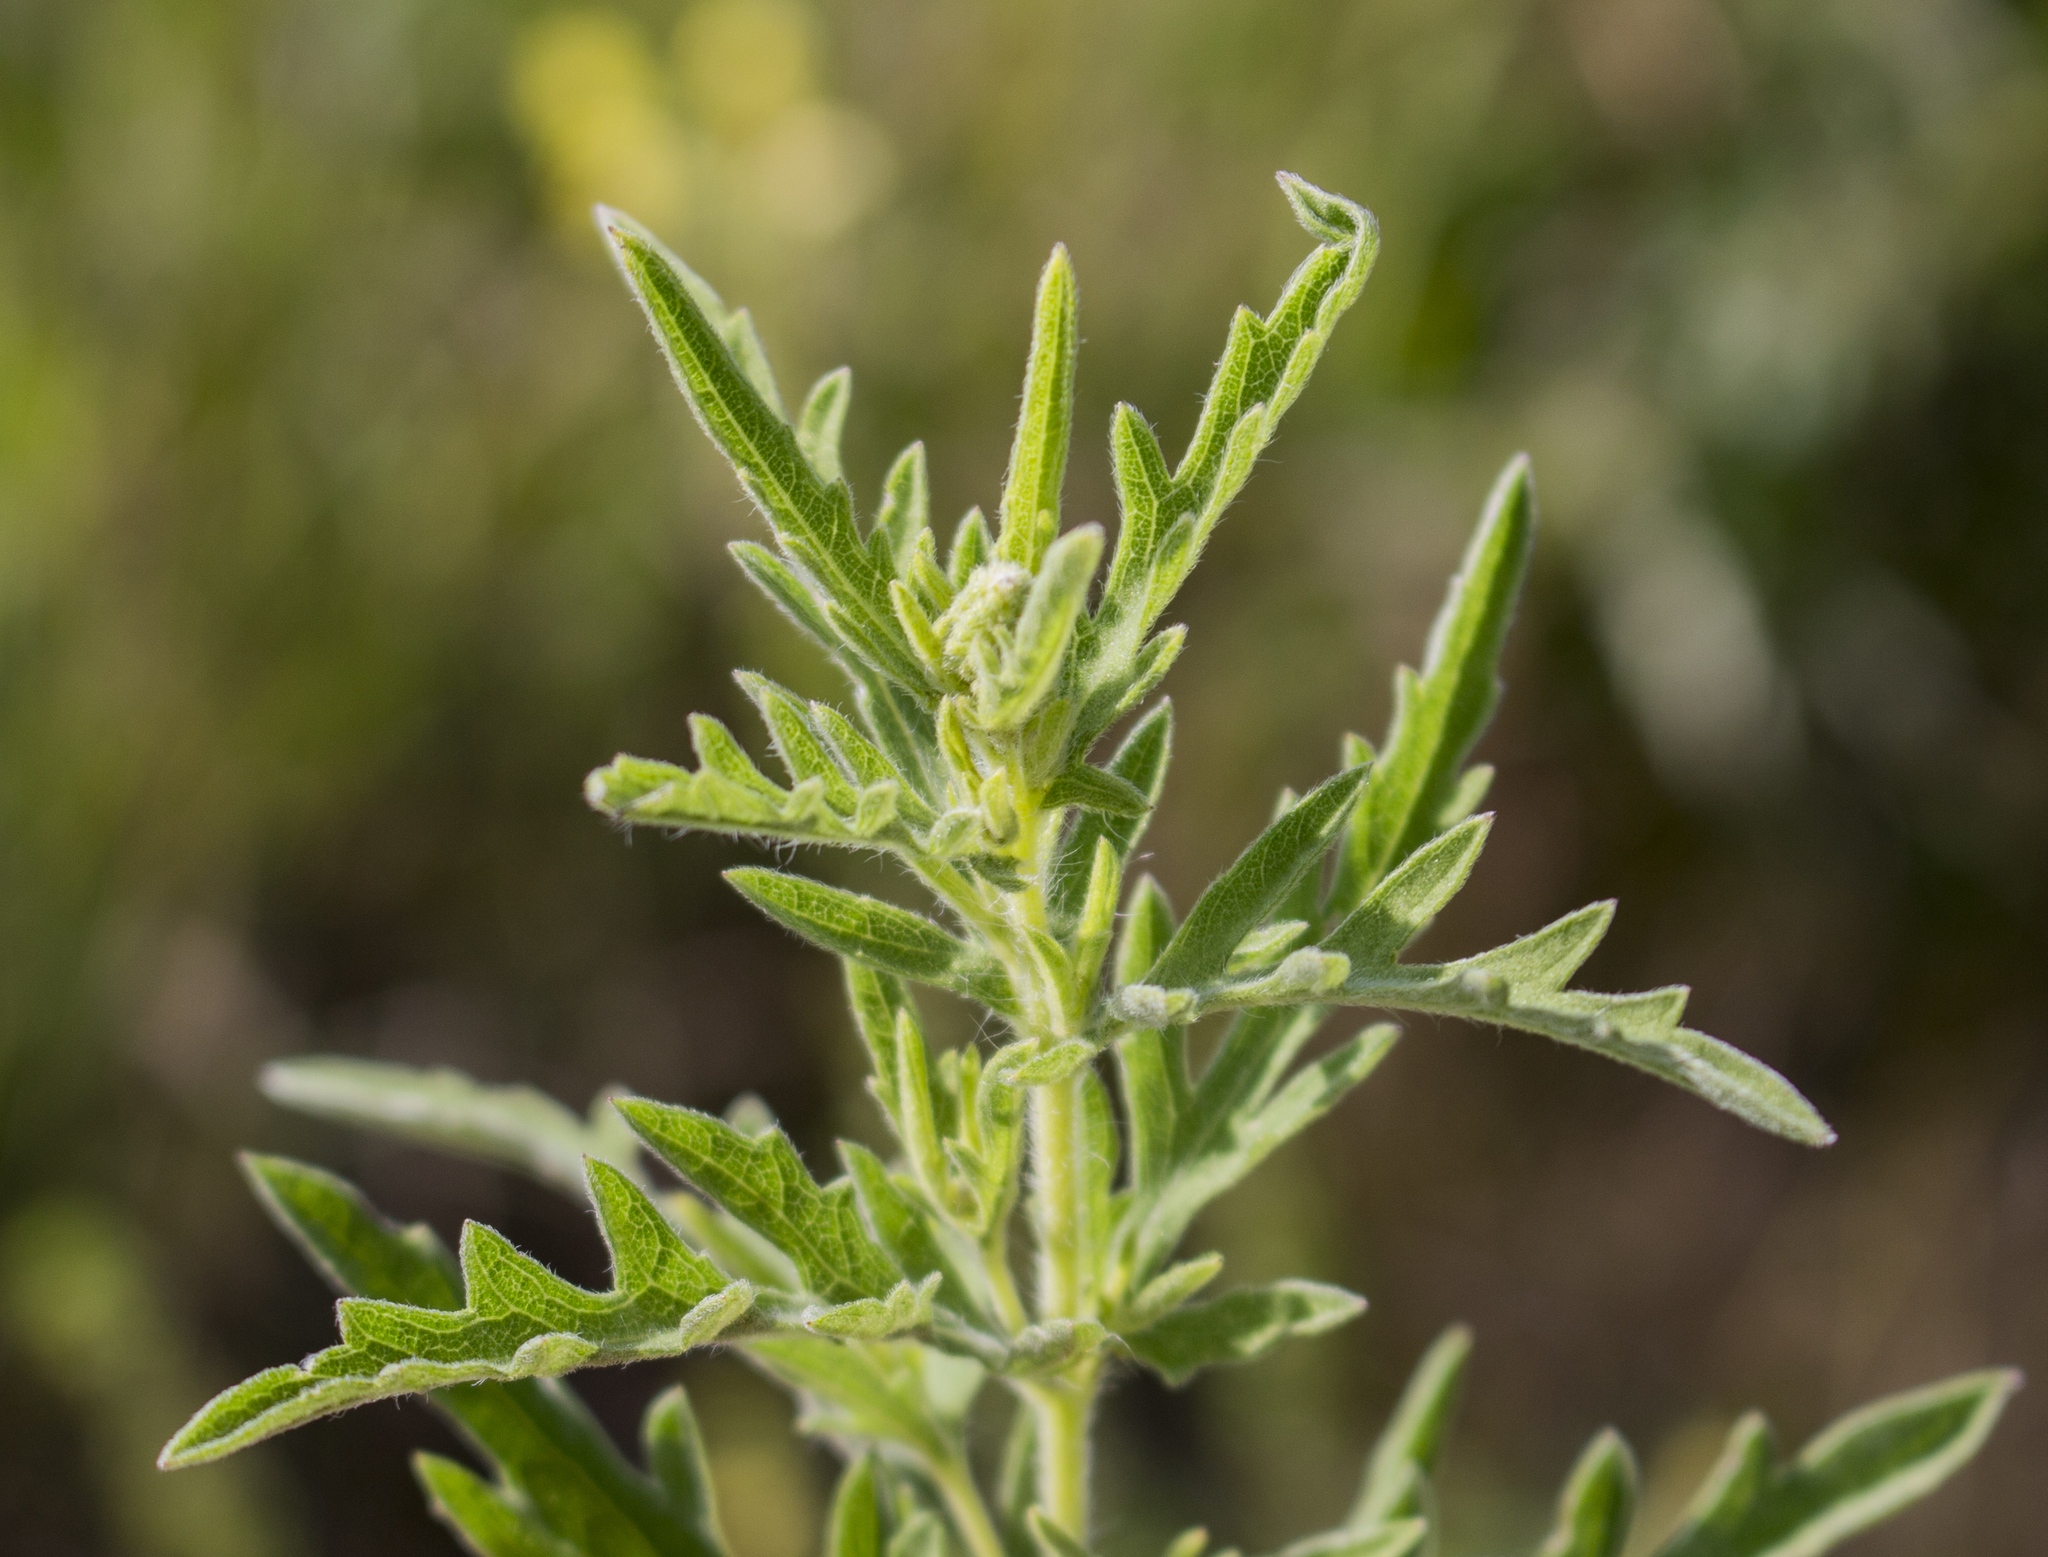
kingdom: Plantae
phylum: Tracheophyta
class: Magnoliopsida
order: Asterales
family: Asteraceae
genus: Ambrosia
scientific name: Ambrosia psilostachya
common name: Perennial ragweed
